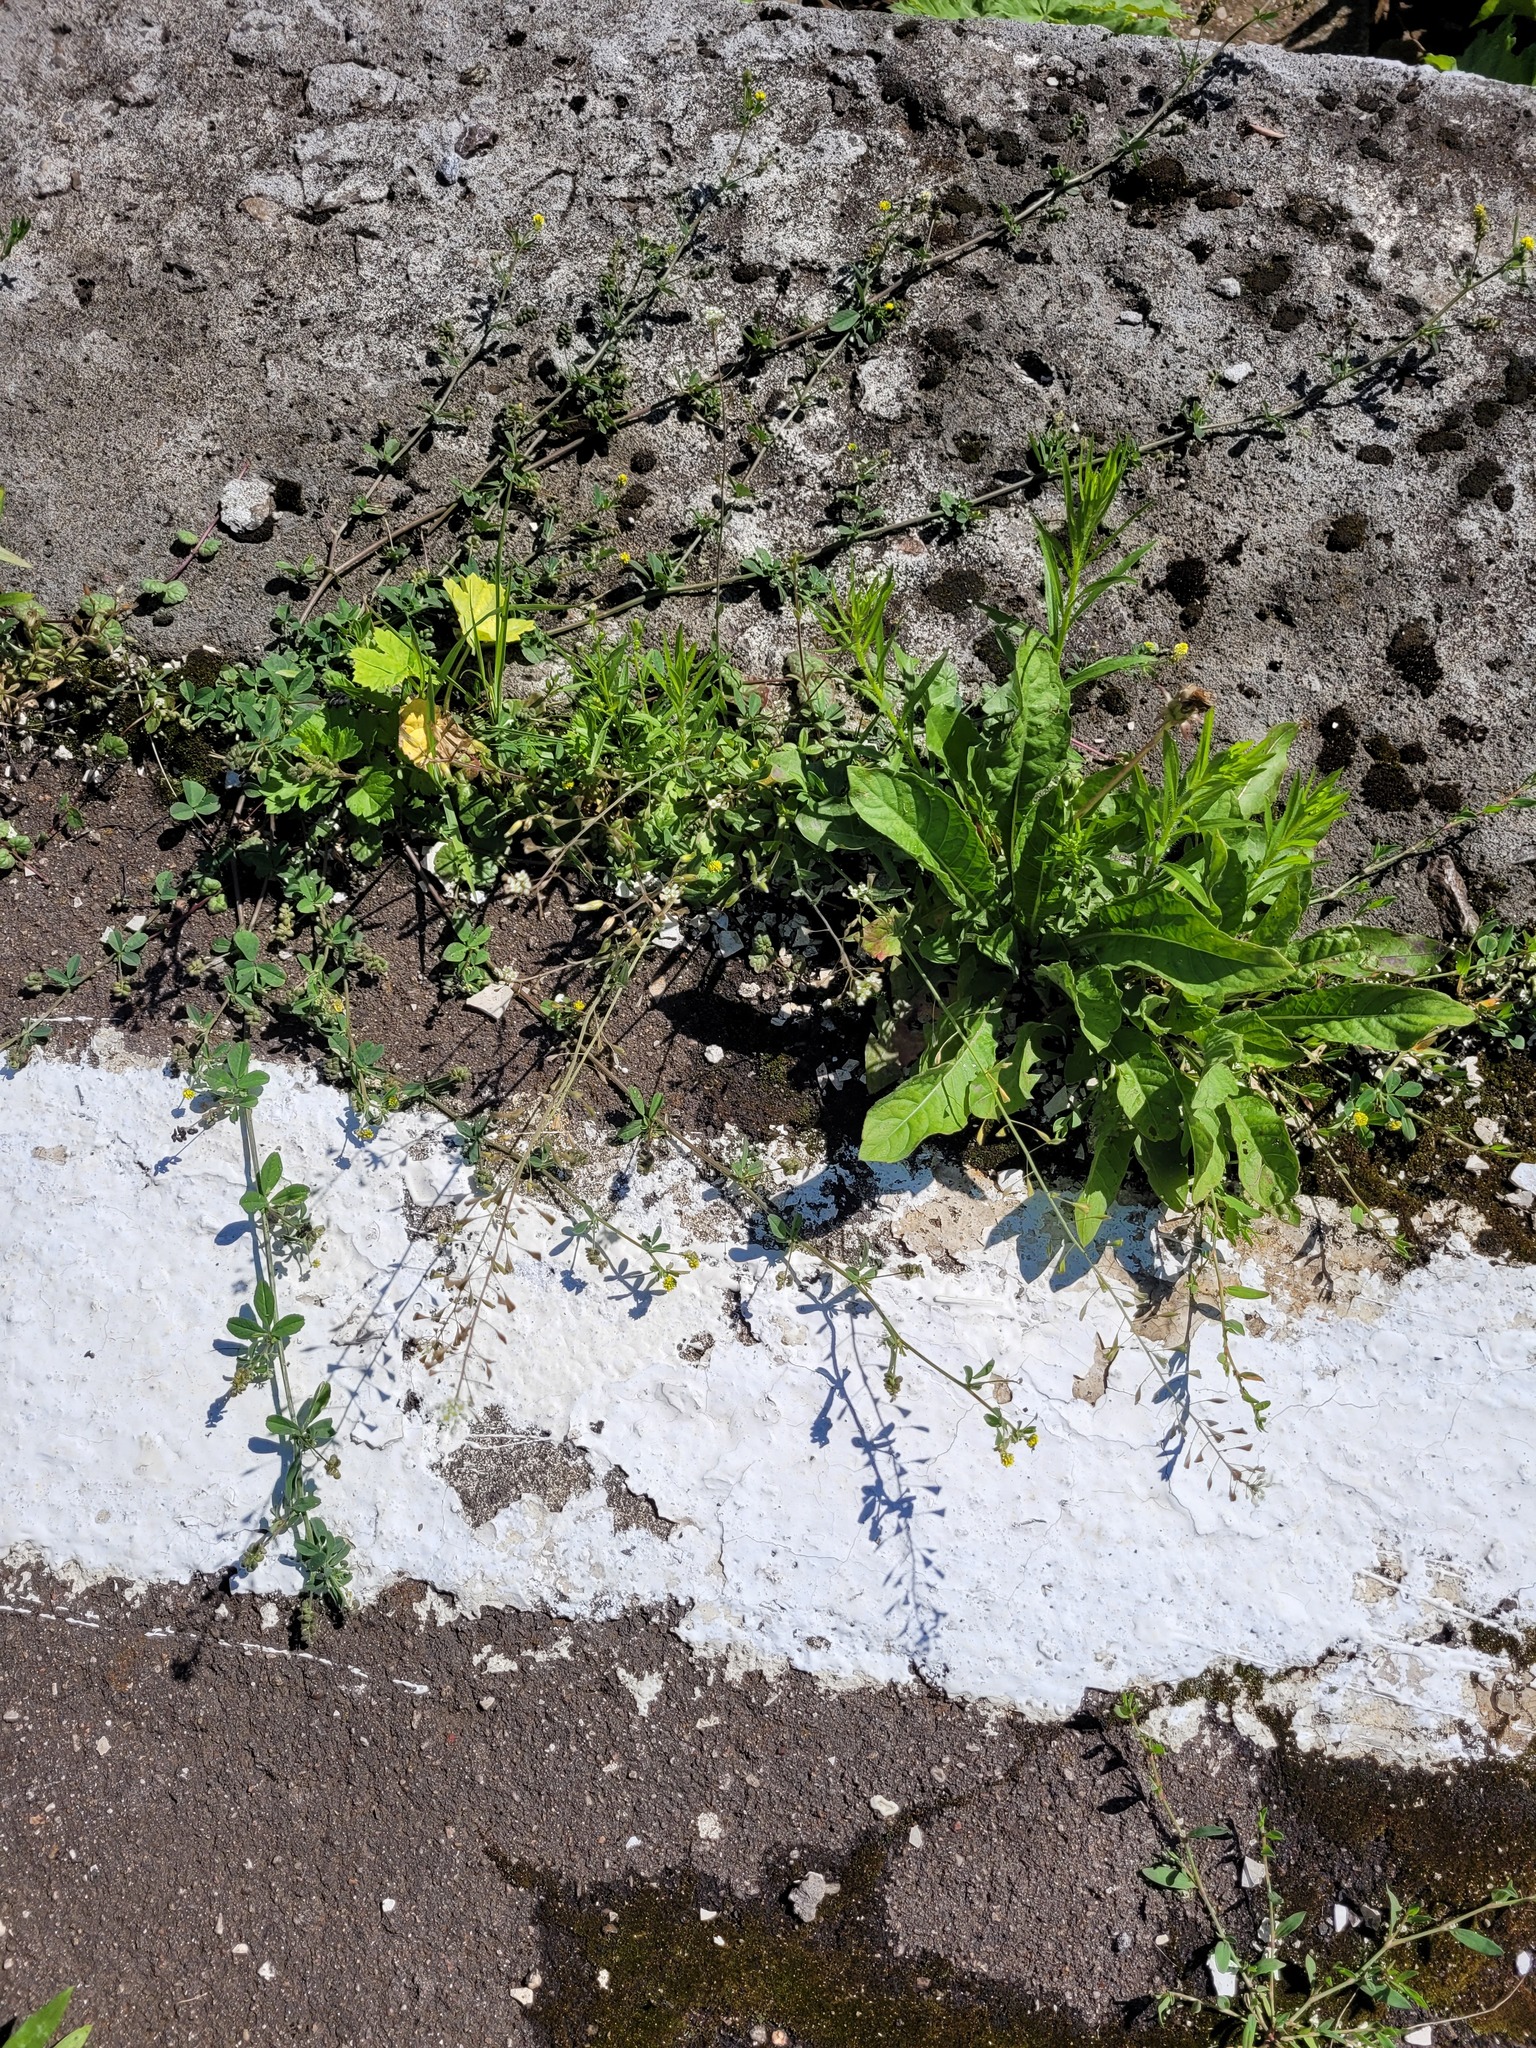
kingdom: Plantae
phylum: Tracheophyta
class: Magnoliopsida
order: Brassicales
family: Brassicaceae
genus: Capsella
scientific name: Capsella bursa-pastoris
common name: Shepherd's purse
